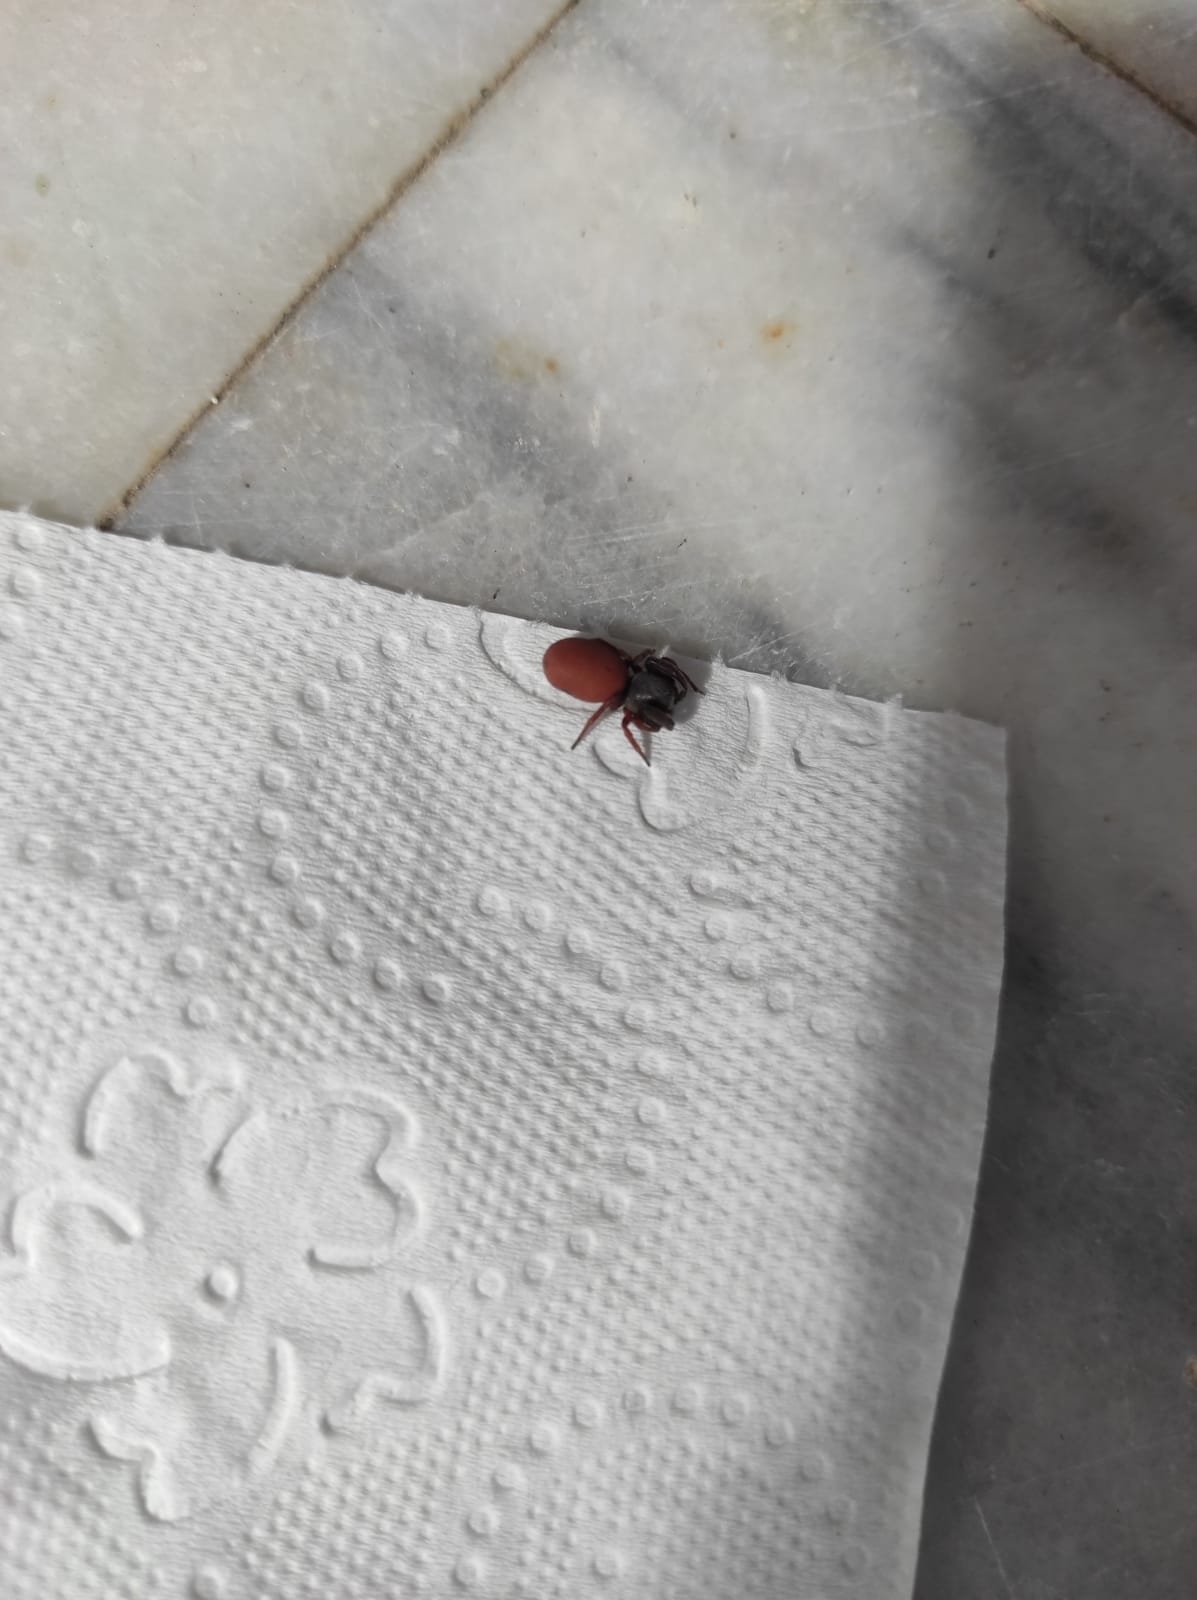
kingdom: Animalia
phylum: Arthropoda
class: Arachnida
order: Araneae
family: Palpimanidae
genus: Palpimanus
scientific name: Palpimanus
